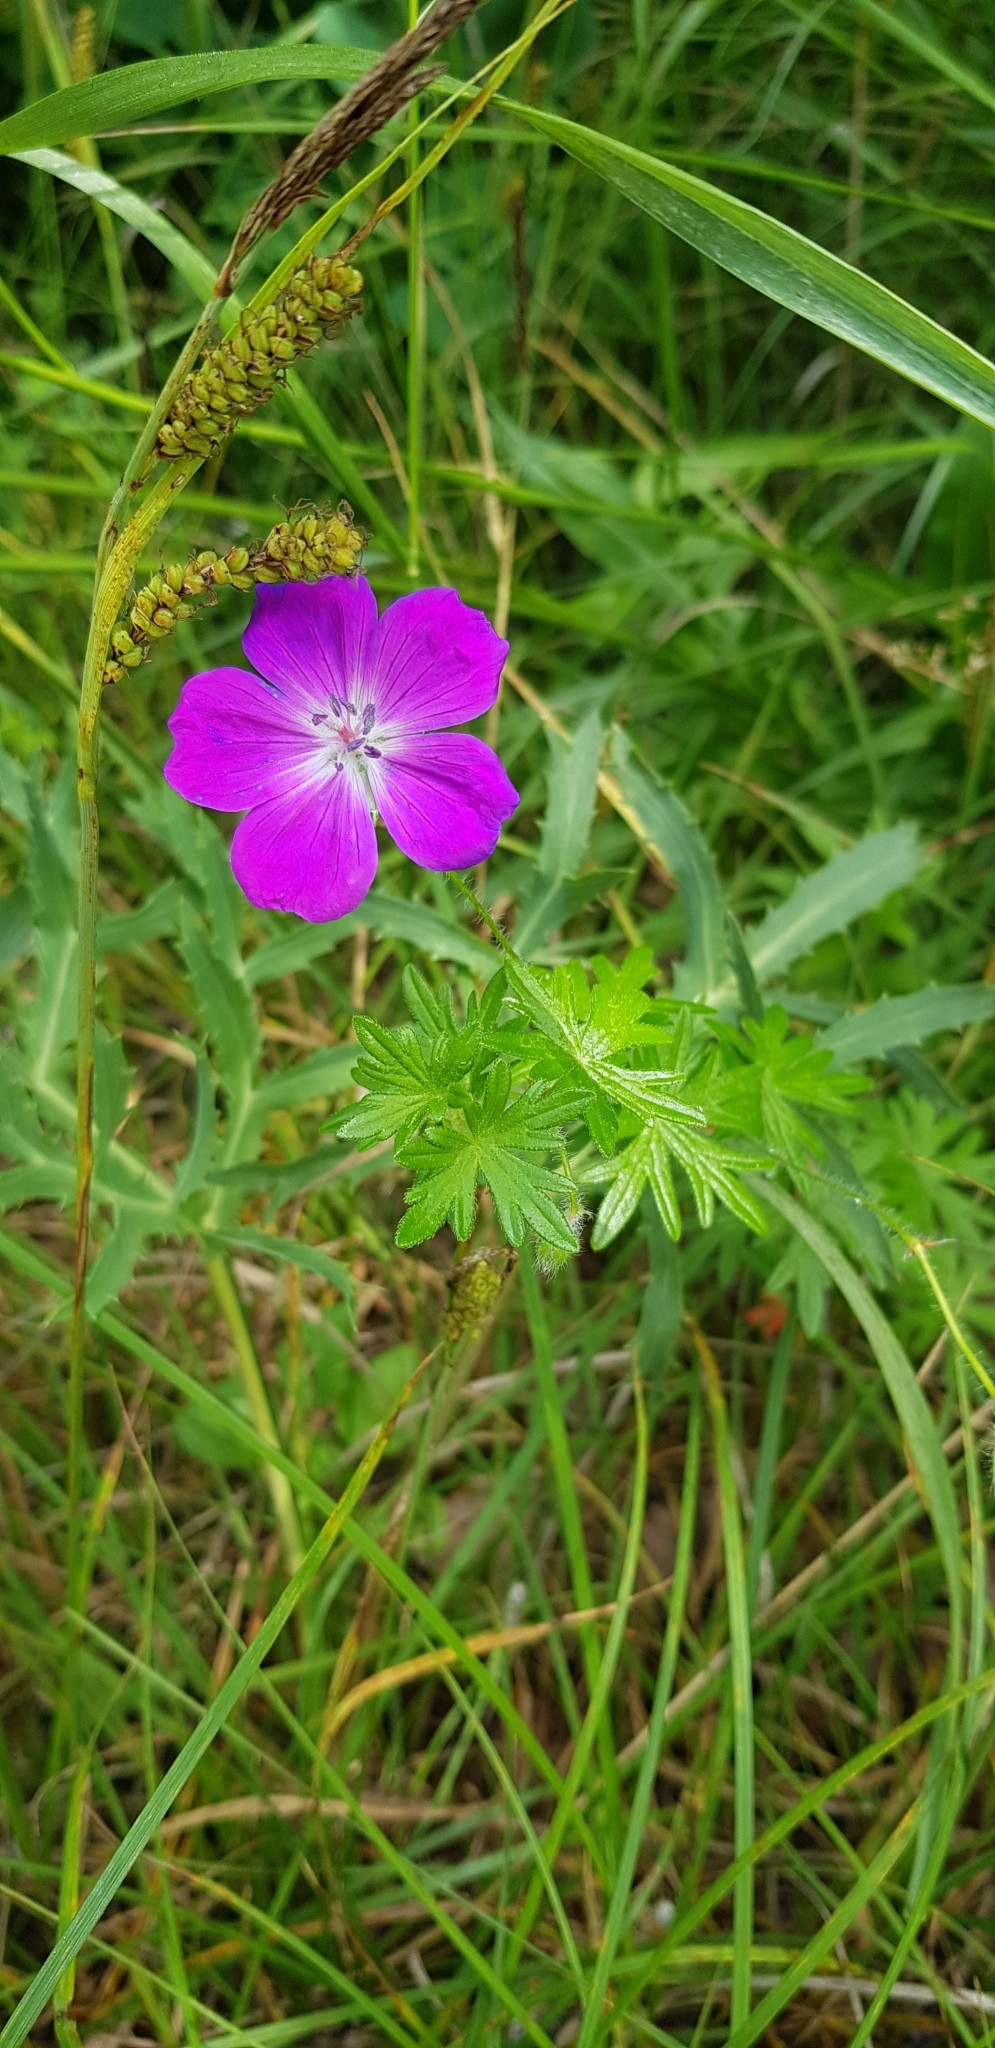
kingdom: Plantae
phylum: Tracheophyta
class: Magnoliopsida
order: Geraniales
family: Geraniaceae
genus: Geranium
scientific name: Geranium sanguineum
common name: Bloody crane's-bill
